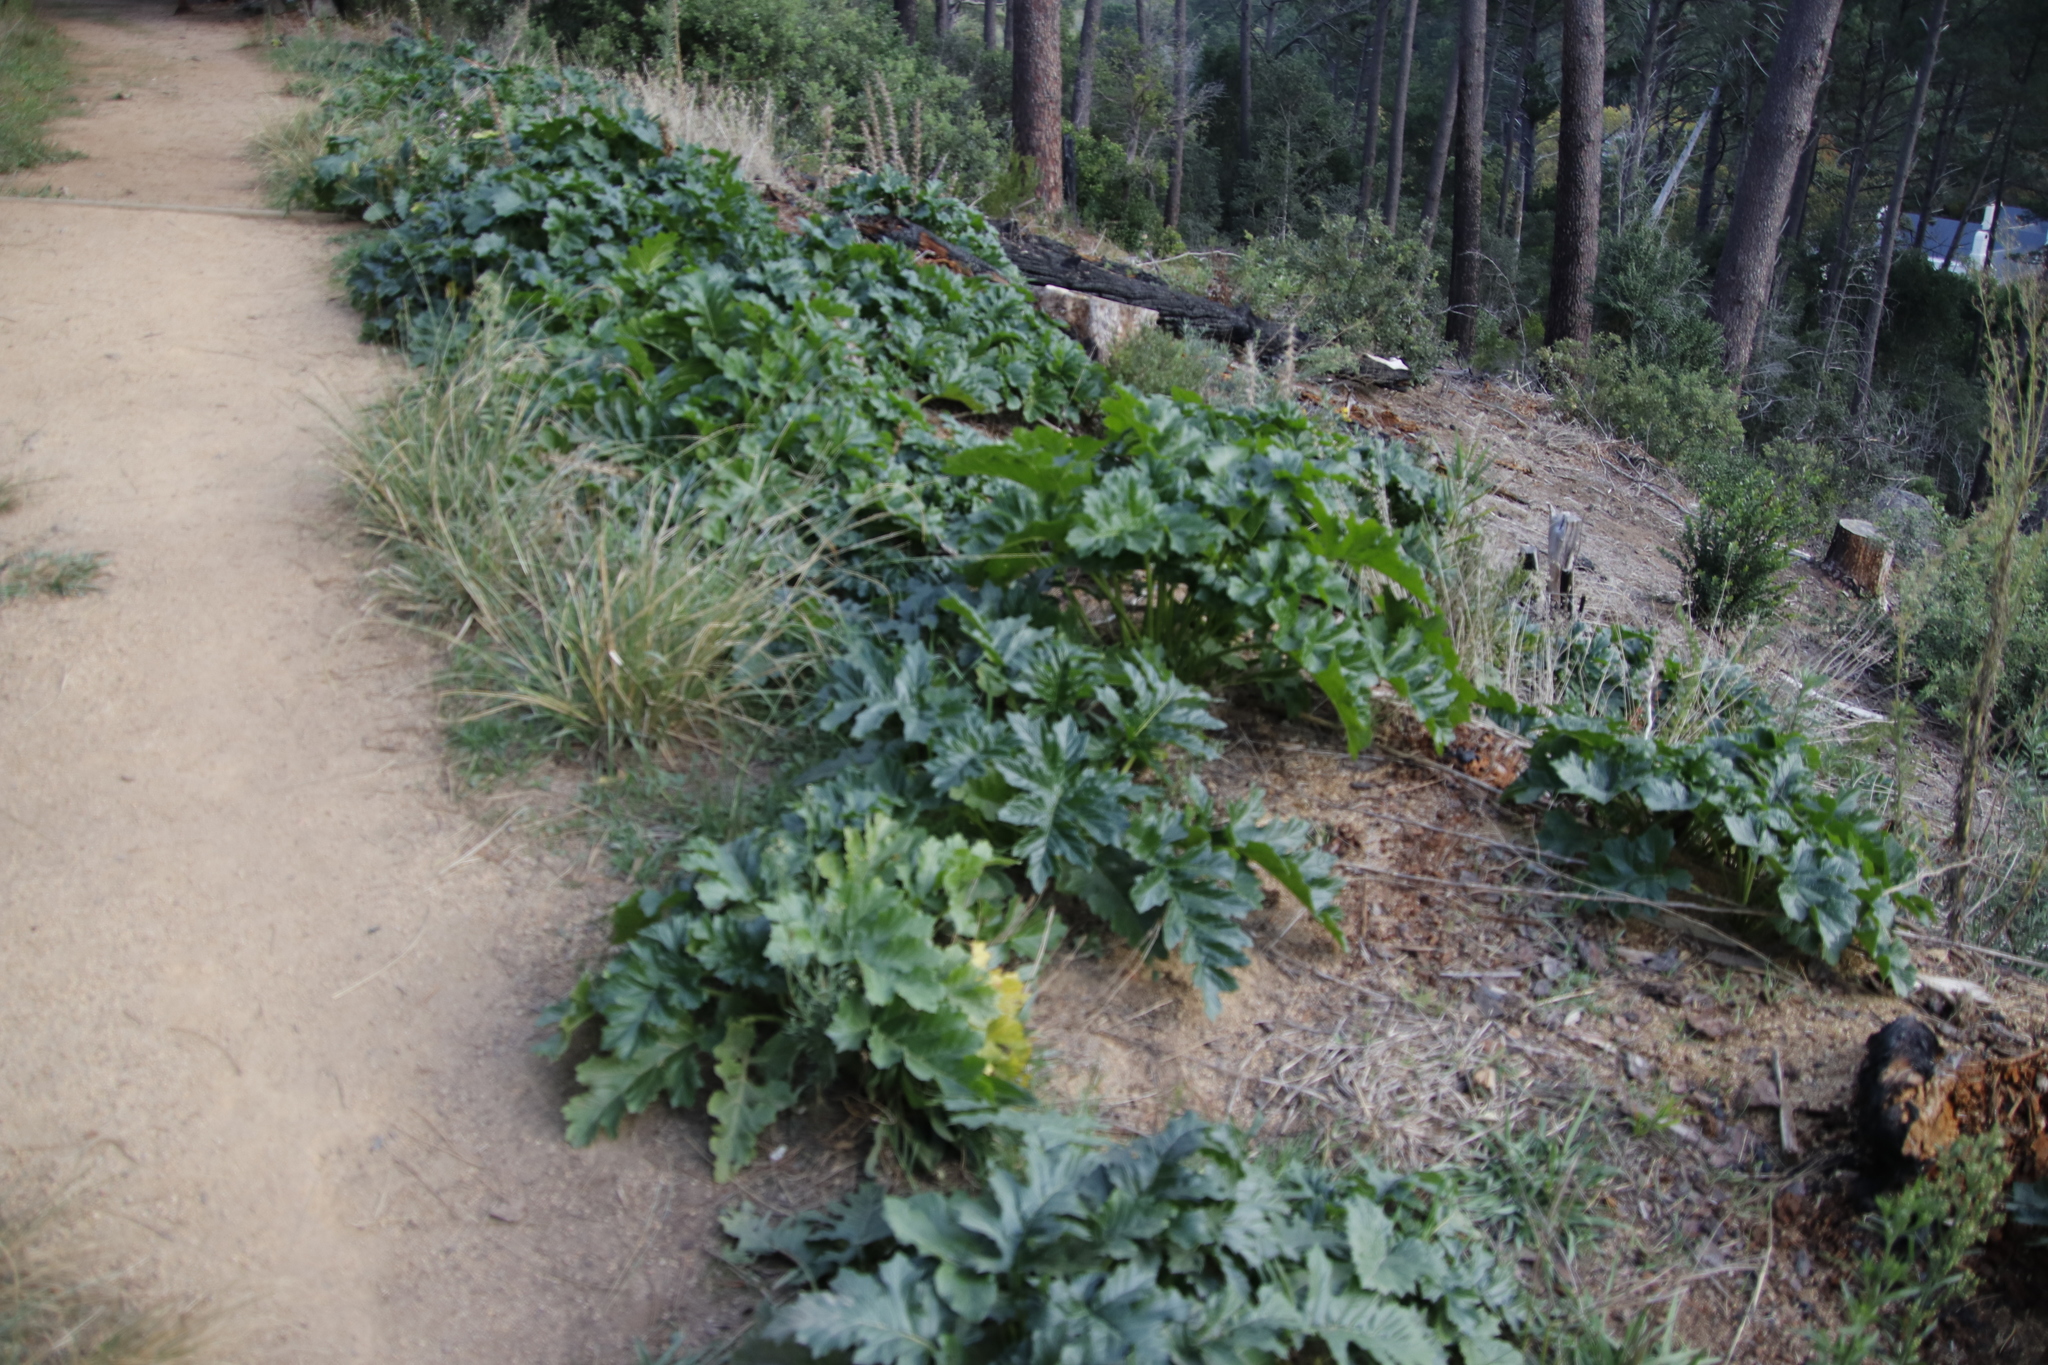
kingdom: Plantae
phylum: Tracheophyta
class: Magnoliopsida
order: Lamiales
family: Acanthaceae
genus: Acanthus
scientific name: Acanthus mollis
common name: Bear's-breech
